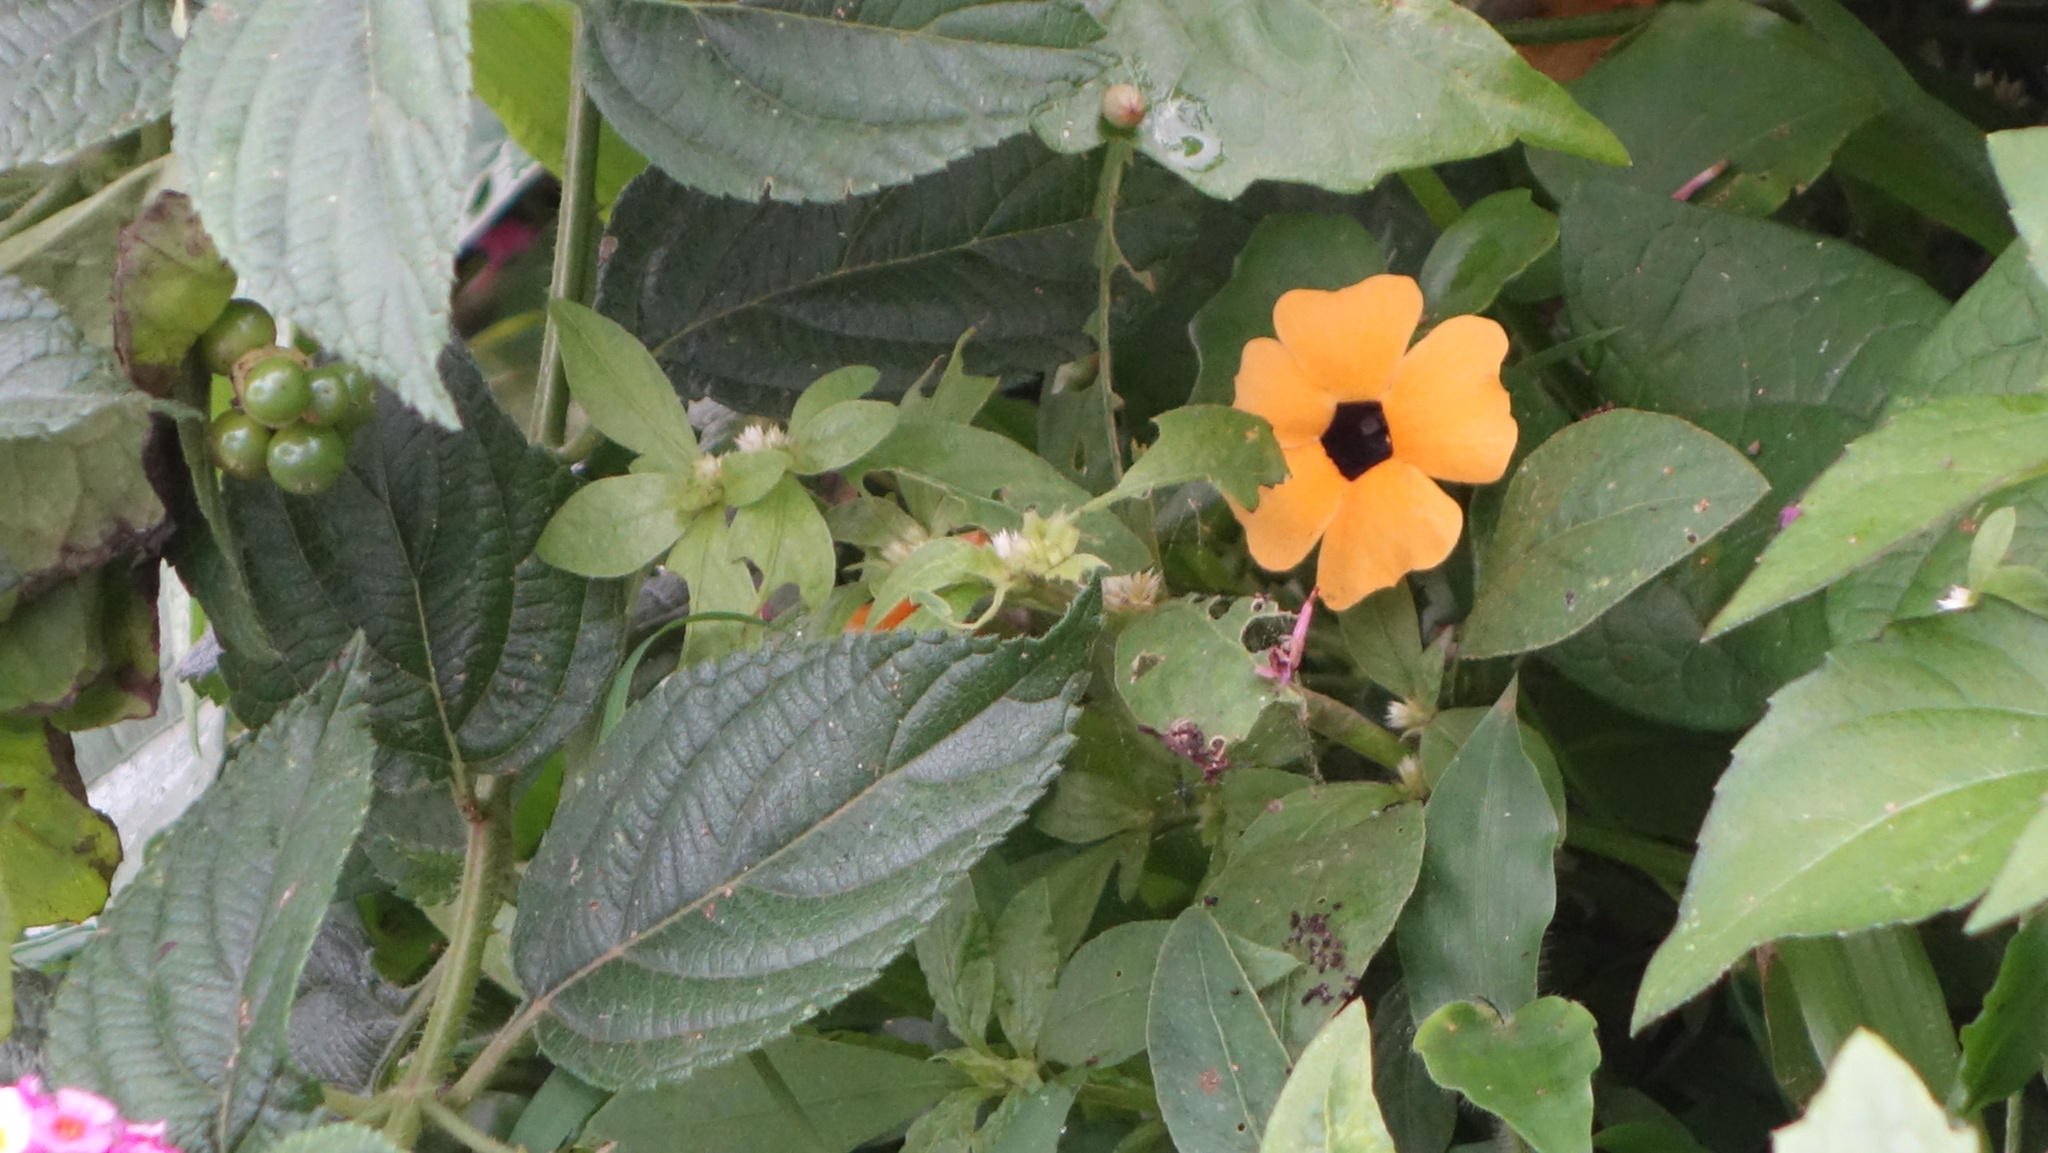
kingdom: Plantae
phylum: Tracheophyta
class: Magnoliopsida
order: Lamiales
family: Acanthaceae
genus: Thunbergia
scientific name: Thunbergia alata
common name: Blackeyed susan vine
